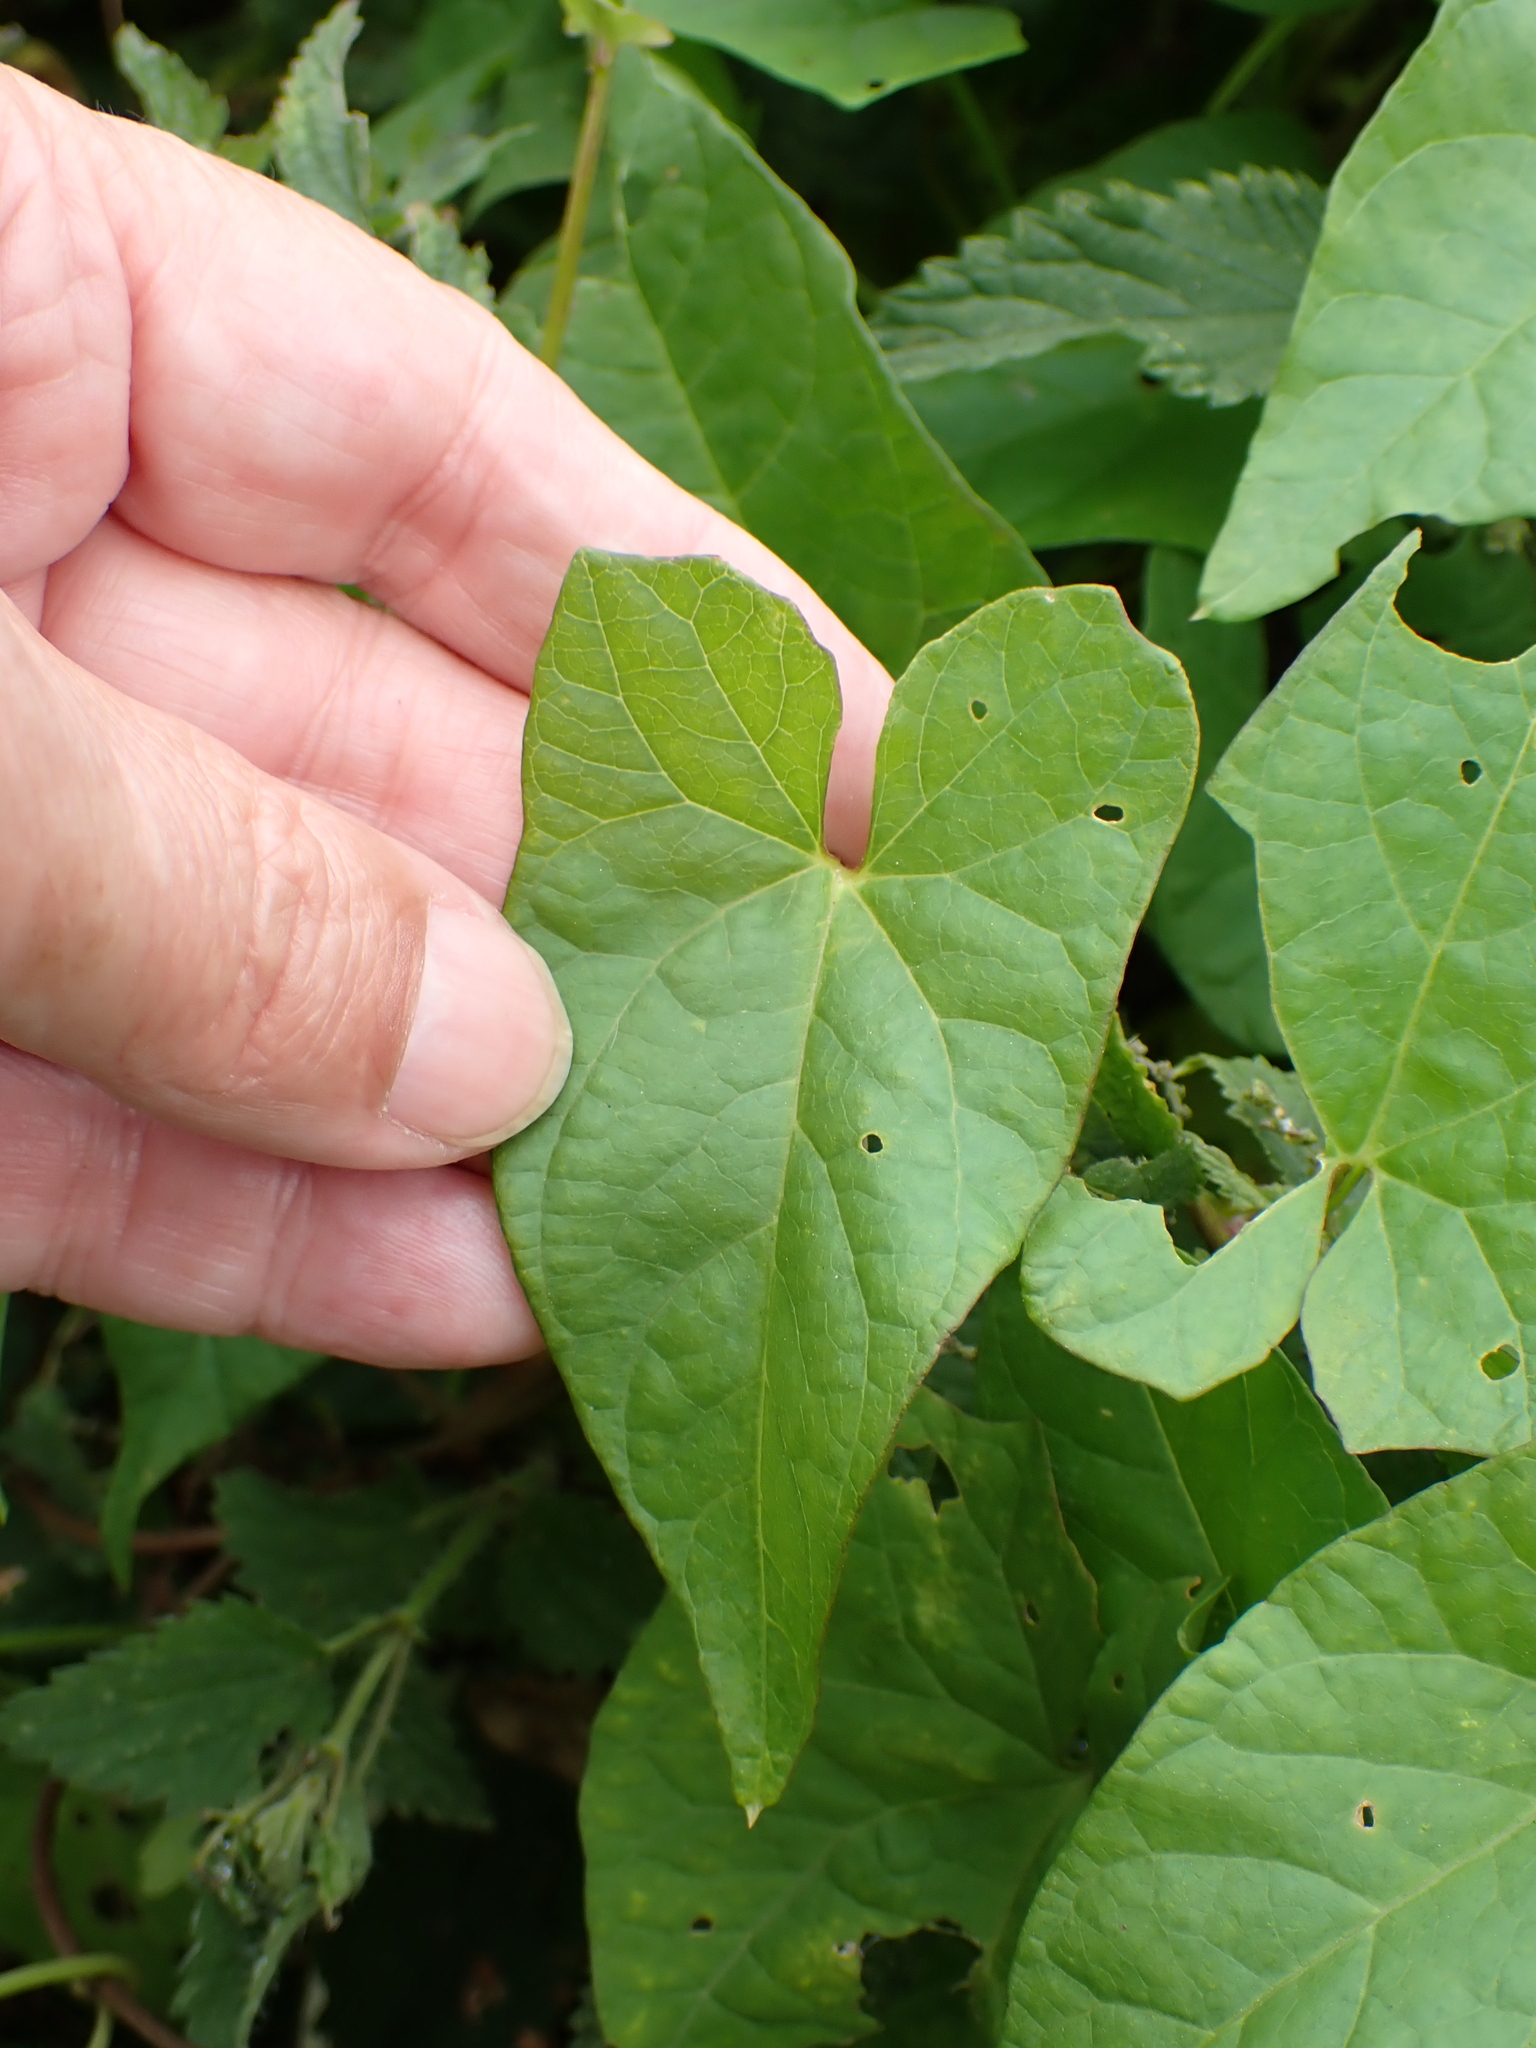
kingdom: Plantae
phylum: Tracheophyta
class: Magnoliopsida
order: Solanales
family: Convolvulaceae
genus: Calystegia
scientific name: Calystegia sepium
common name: Hedge bindweed
